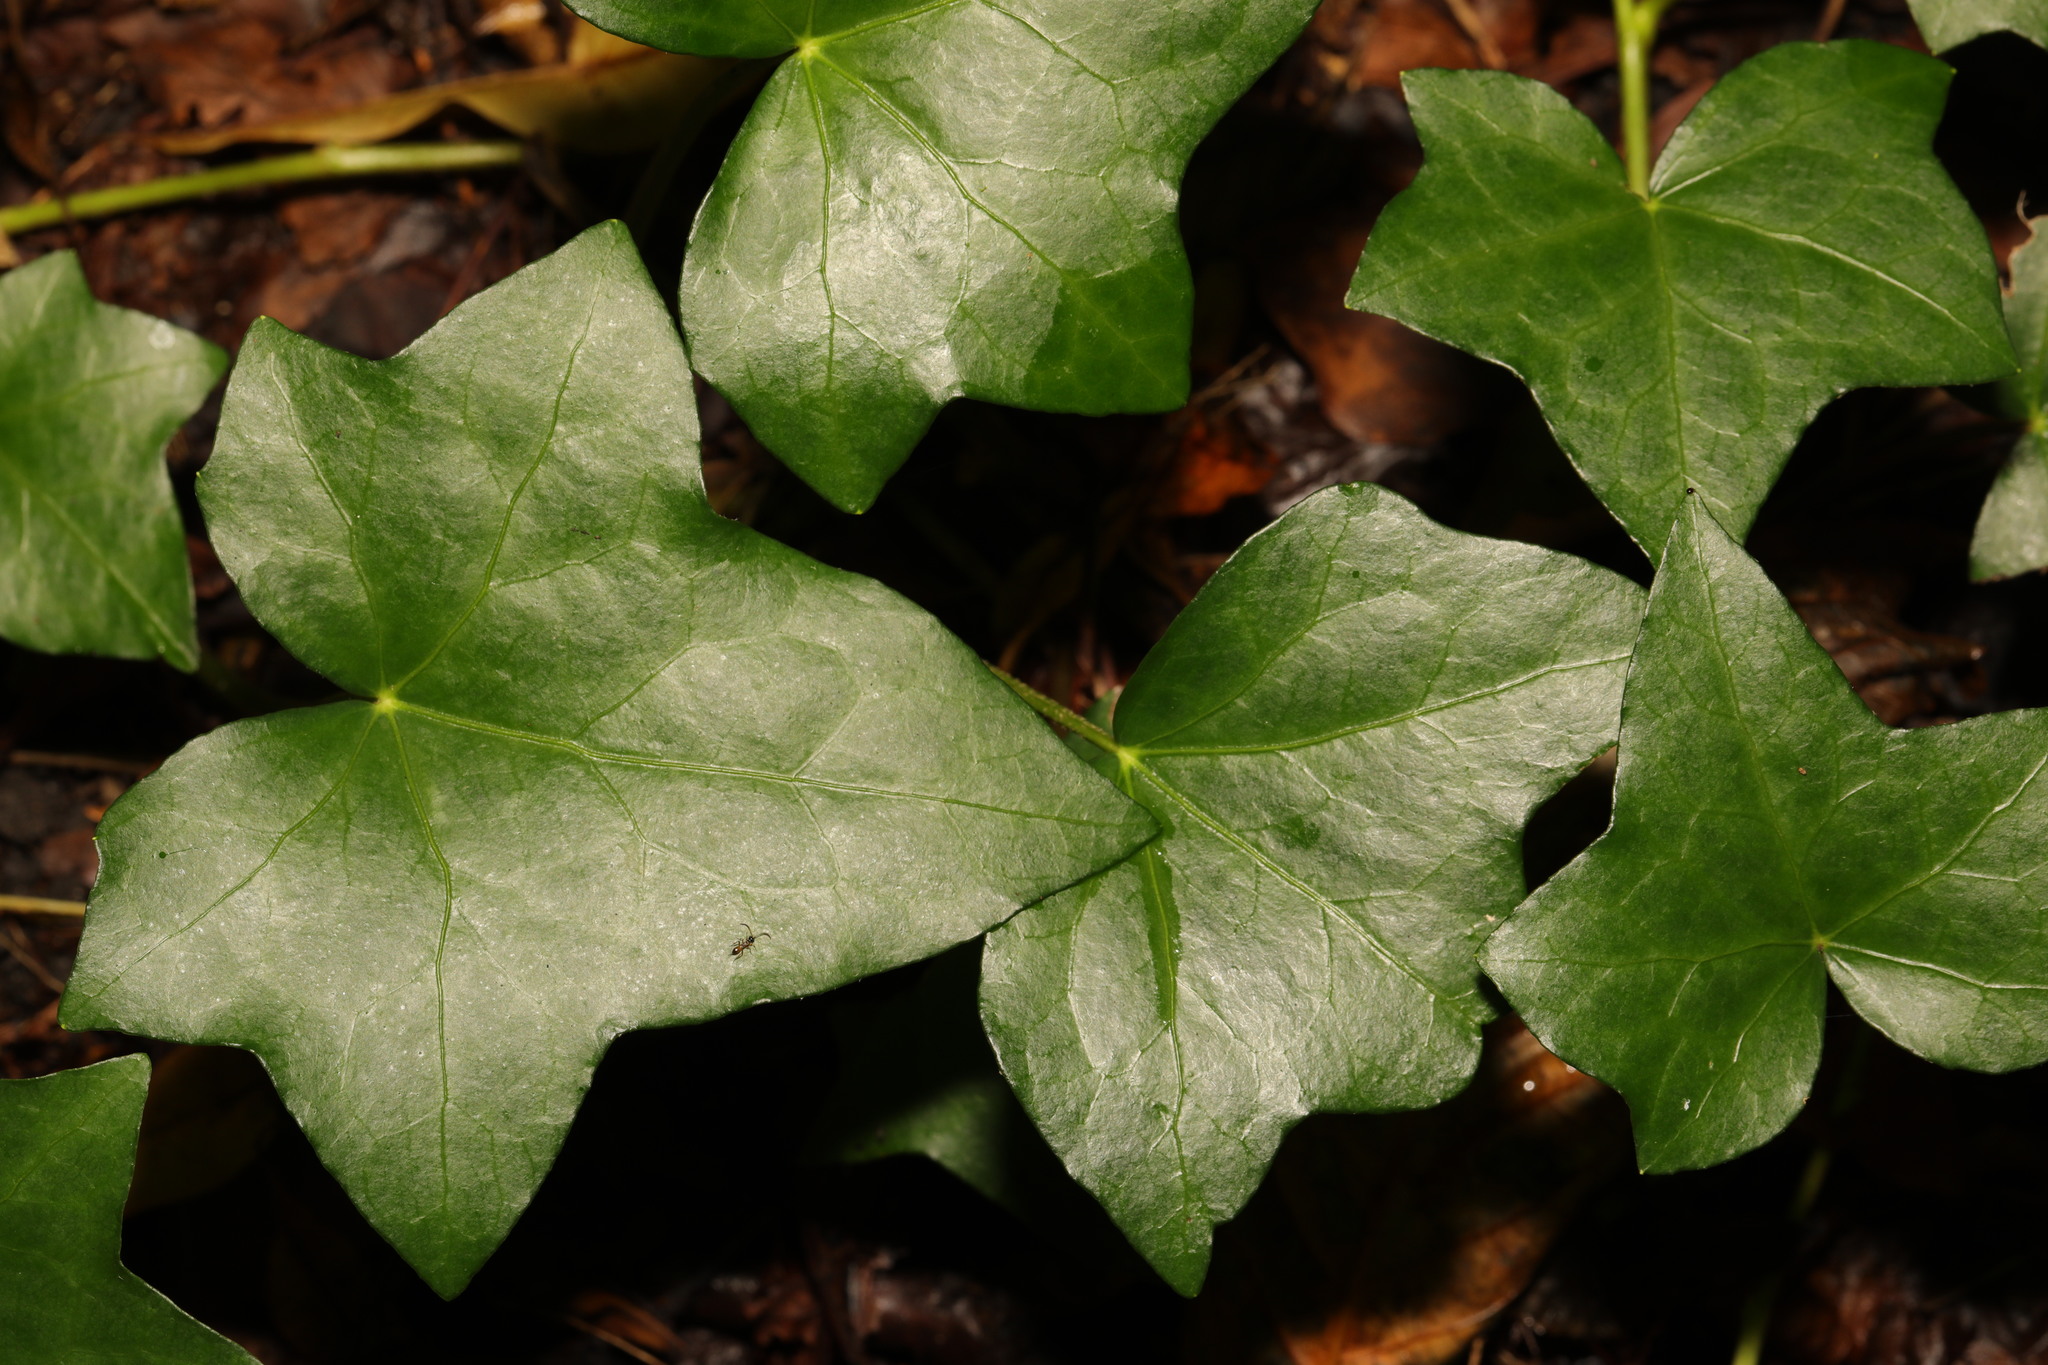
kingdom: Plantae
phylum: Tracheophyta
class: Magnoliopsida
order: Apiales
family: Araliaceae
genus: Hedera
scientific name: Hedera helix
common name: Ivy
